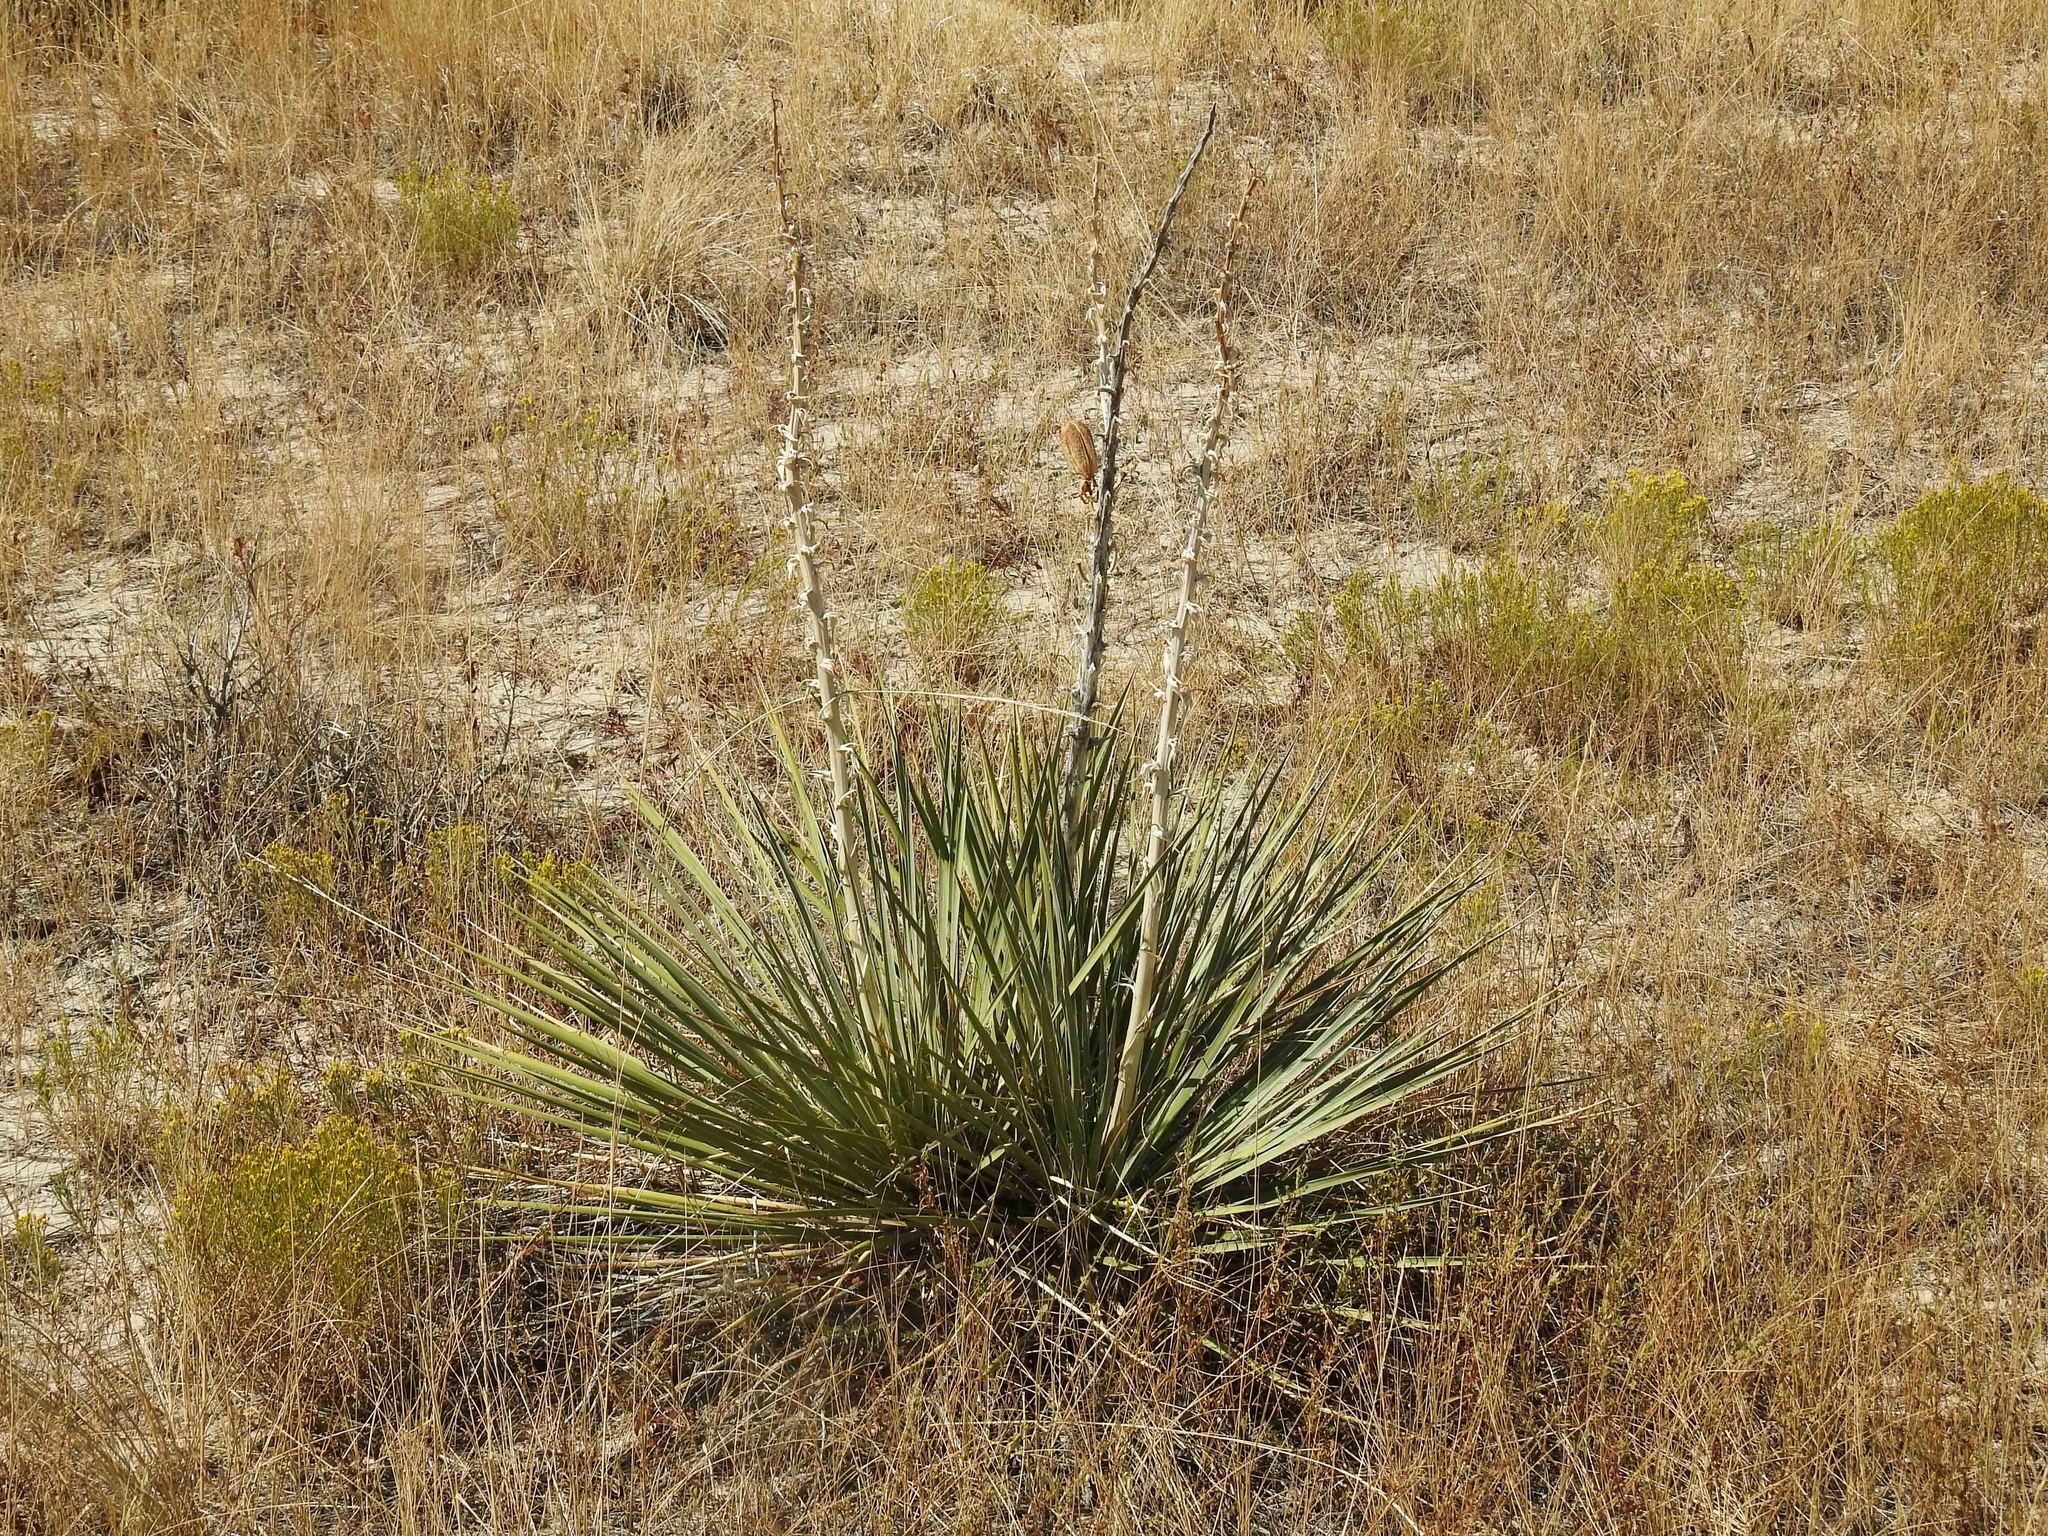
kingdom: Plantae
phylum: Tracheophyta
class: Liliopsida
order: Asparagales
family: Asparagaceae
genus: Yucca
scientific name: Yucca glauca
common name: Great plains yucca
